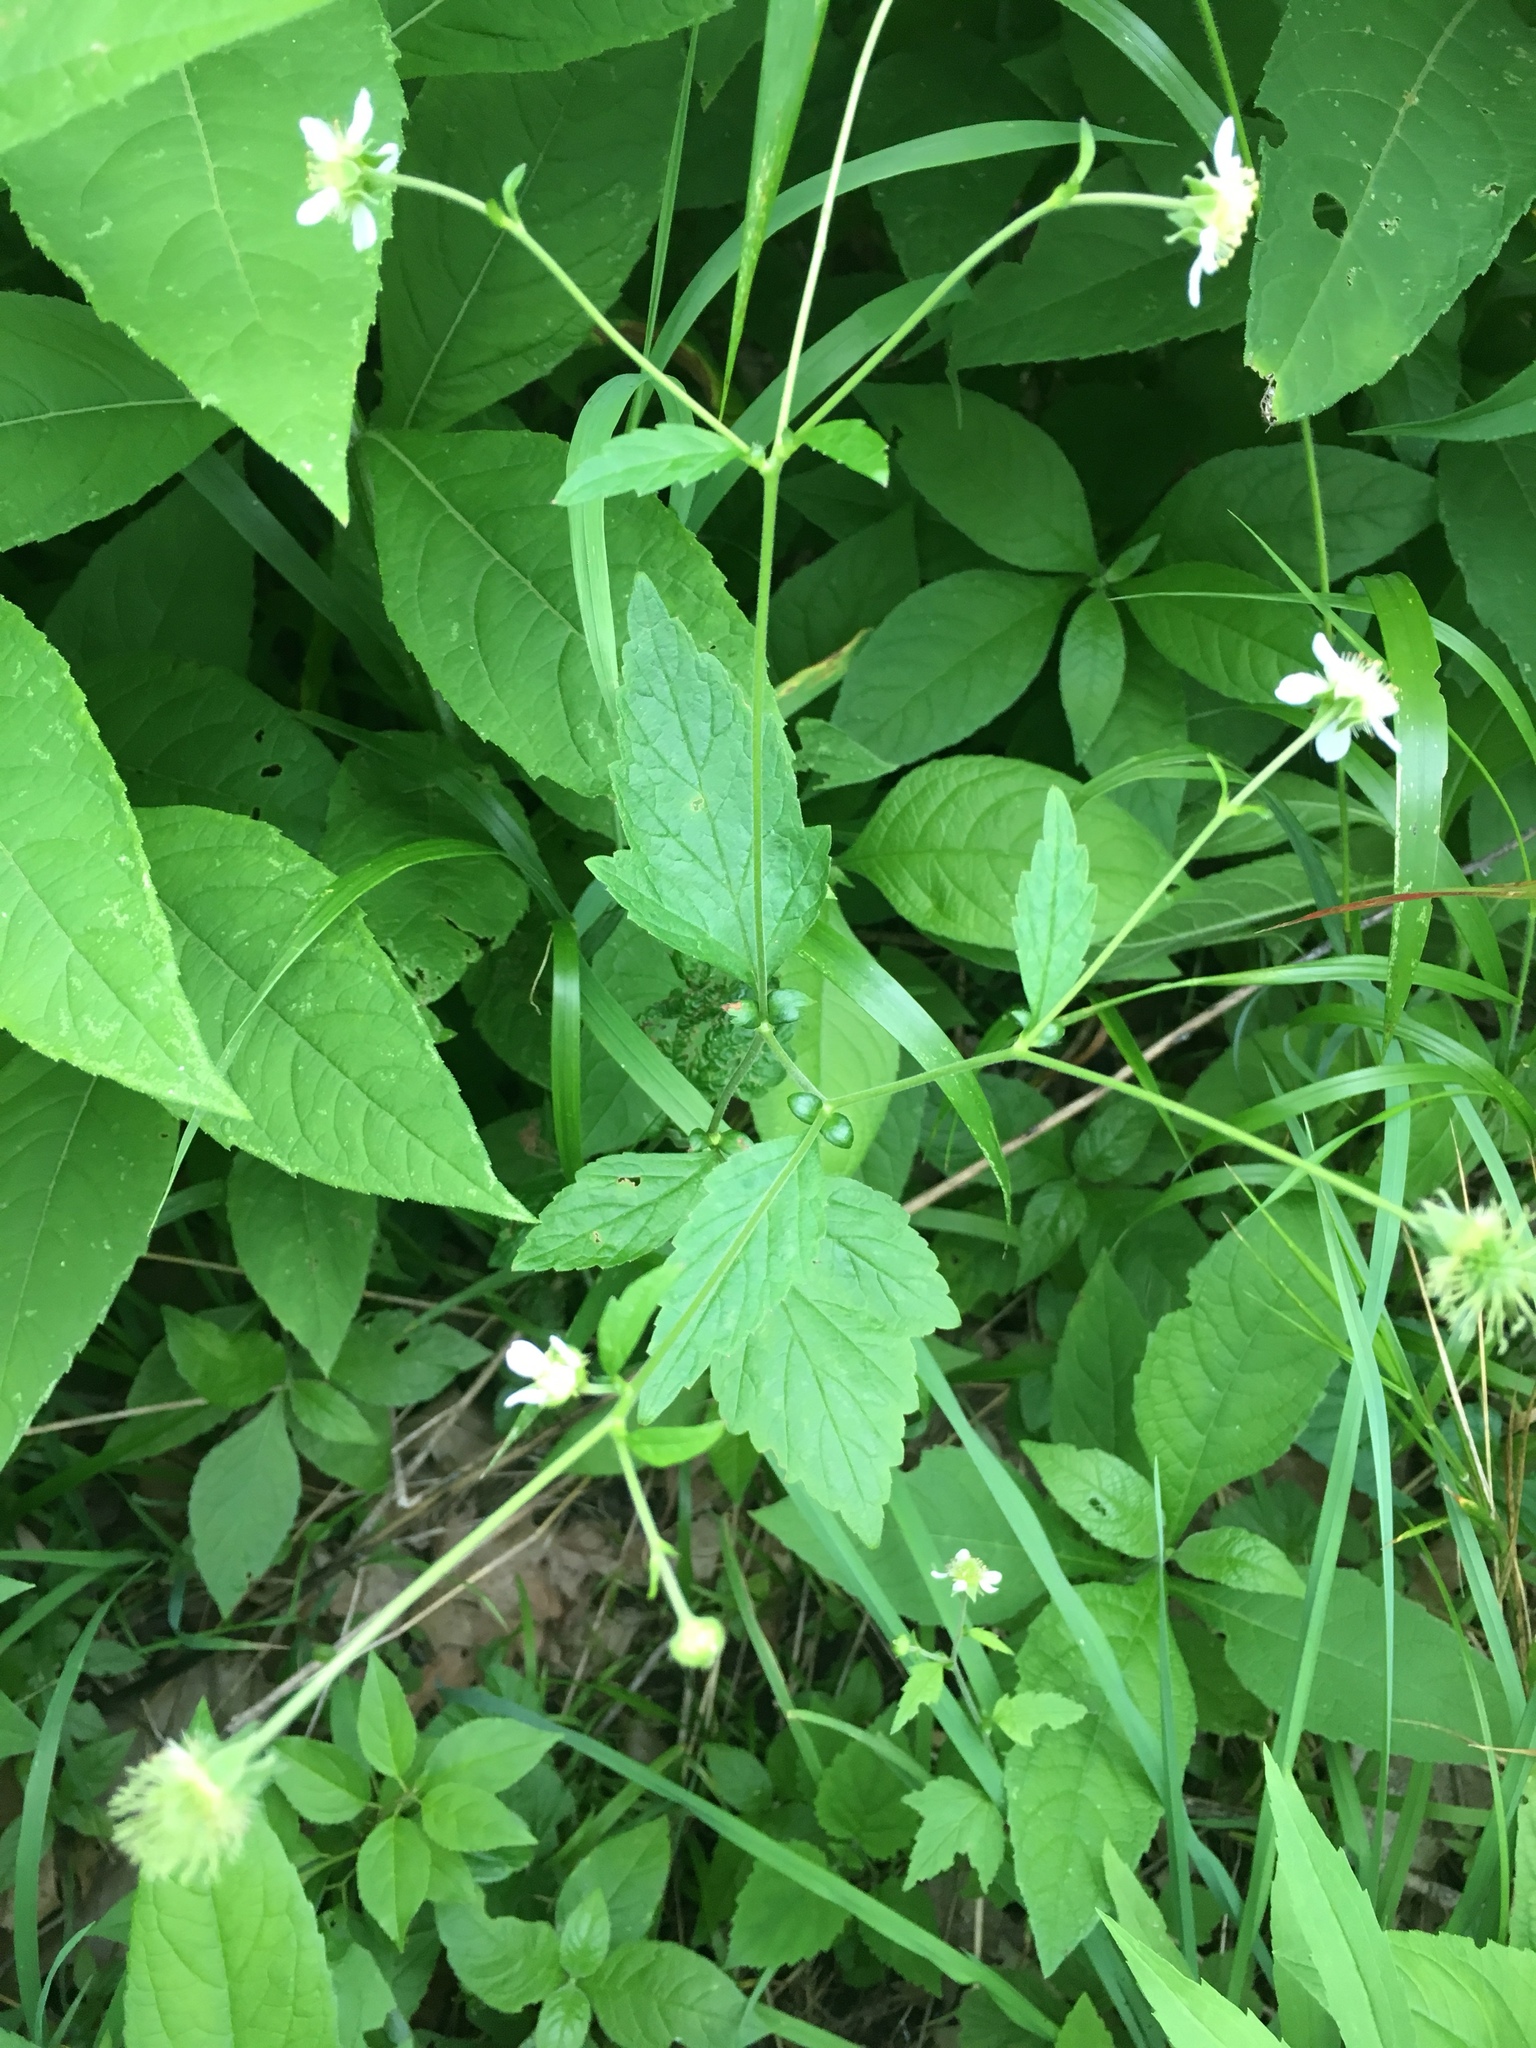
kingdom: Plantae
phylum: Tracheophyta
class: Magnoliopsida
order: Rosales
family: Rosaceae
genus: Geum
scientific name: Geum canadense
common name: White avens
